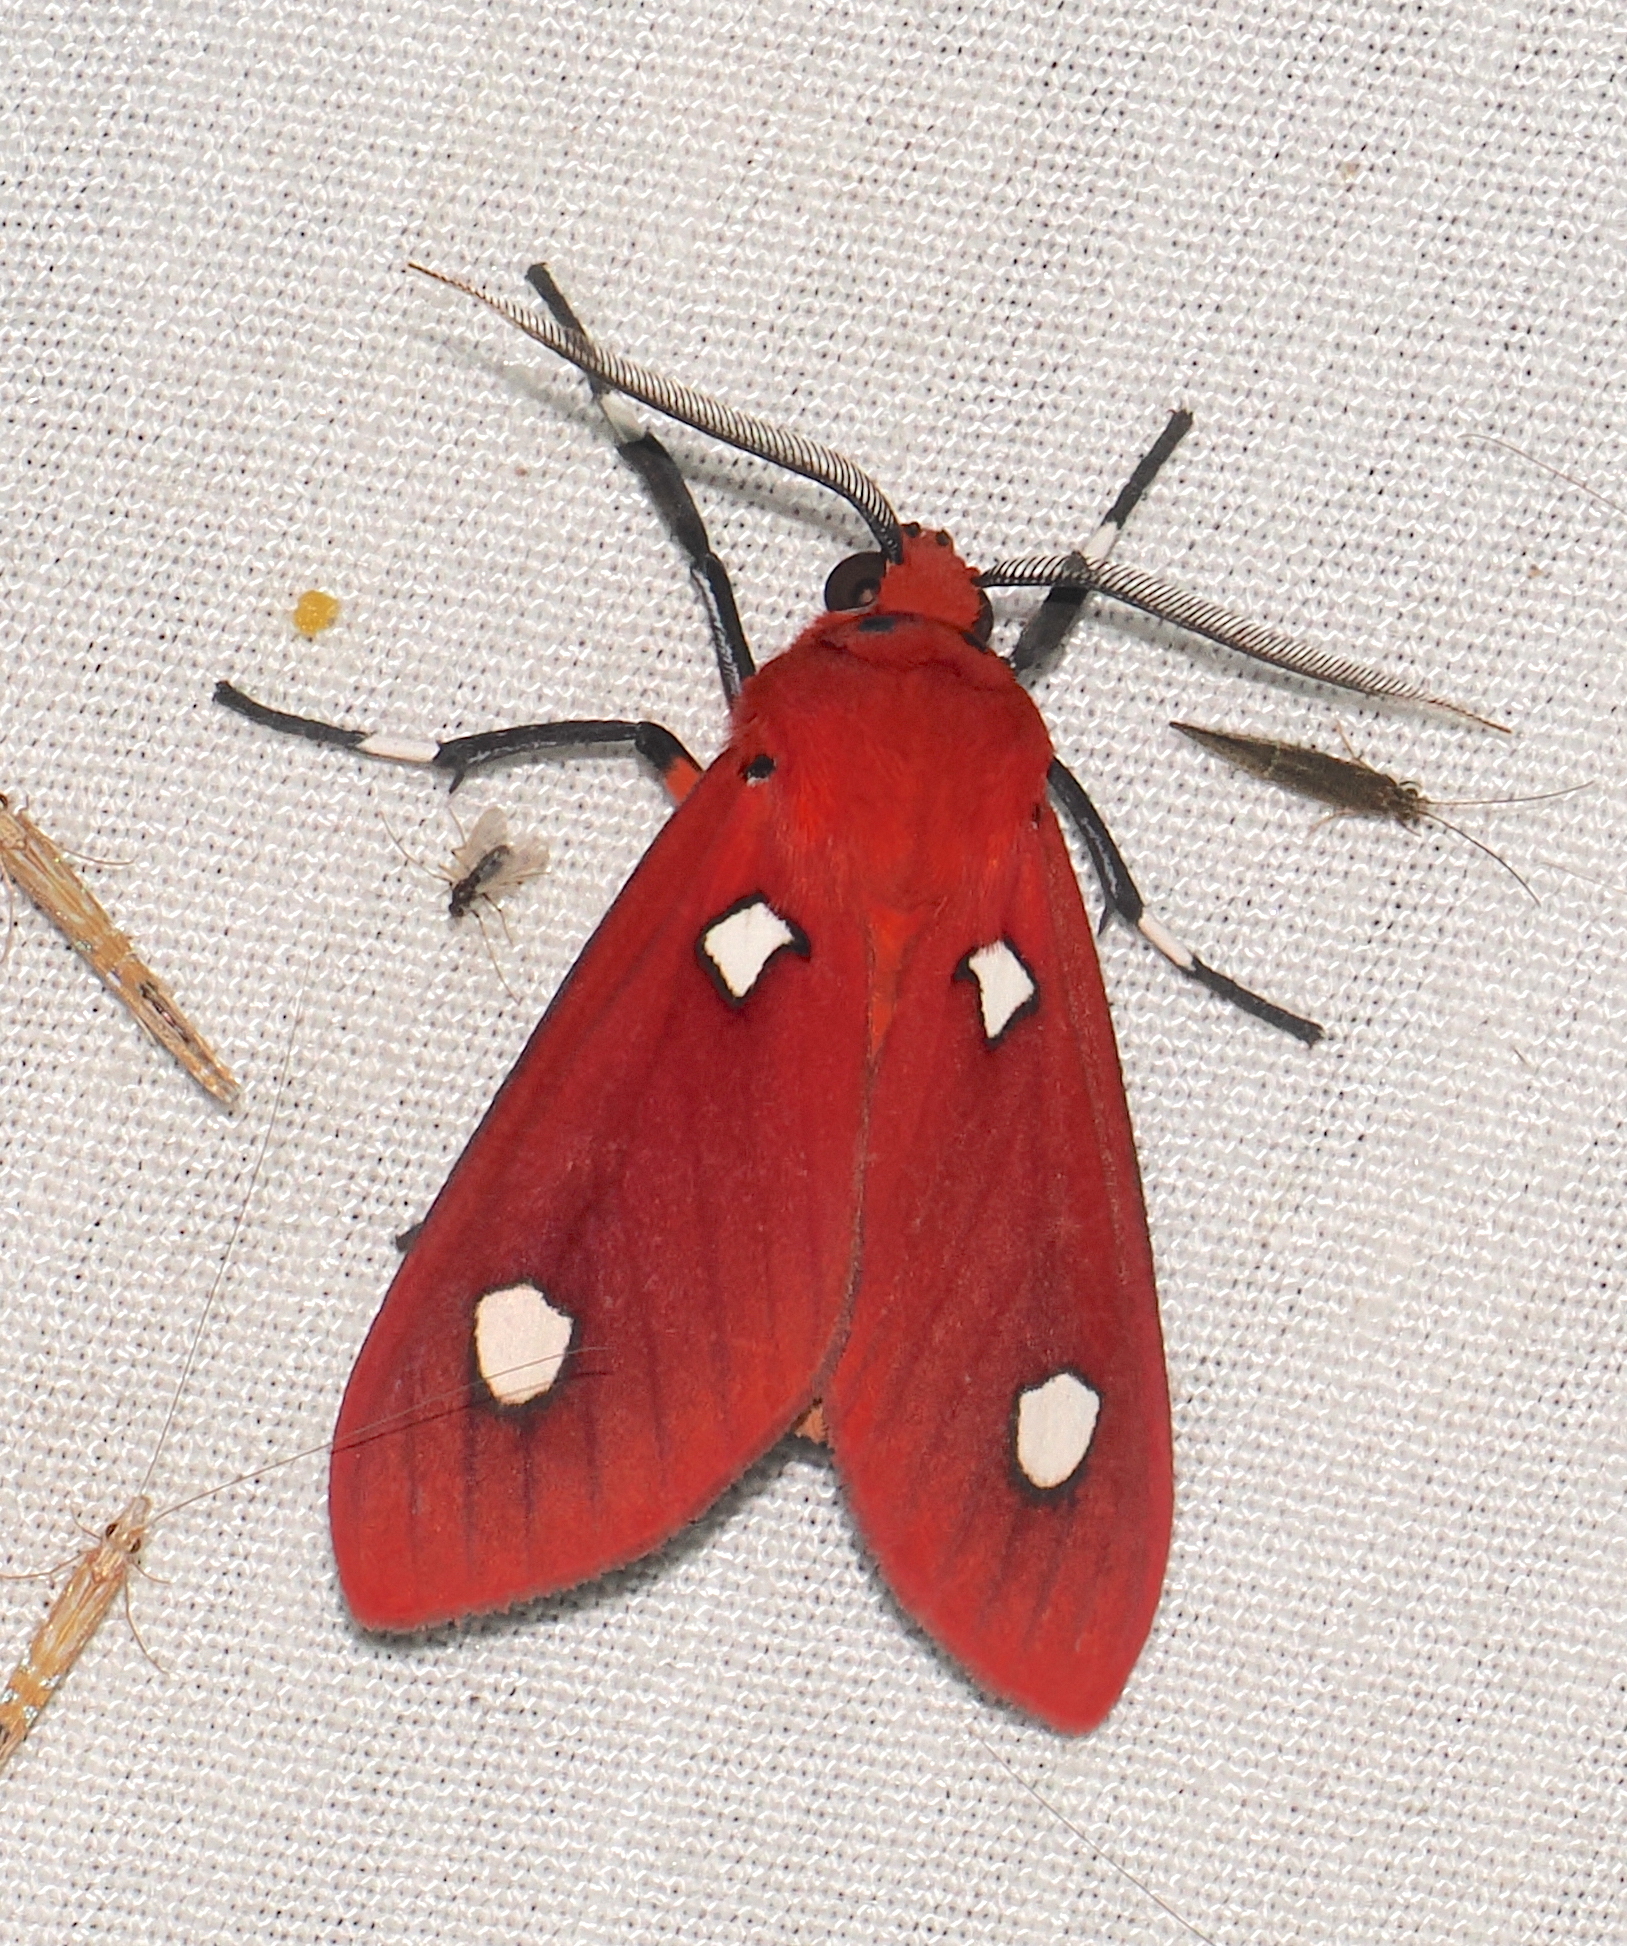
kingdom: Animalia
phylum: Arthropoda
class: Insecta
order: Lepidoptera
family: Erebidae
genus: Hyperthaema
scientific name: Hyperthaema sanguineata
